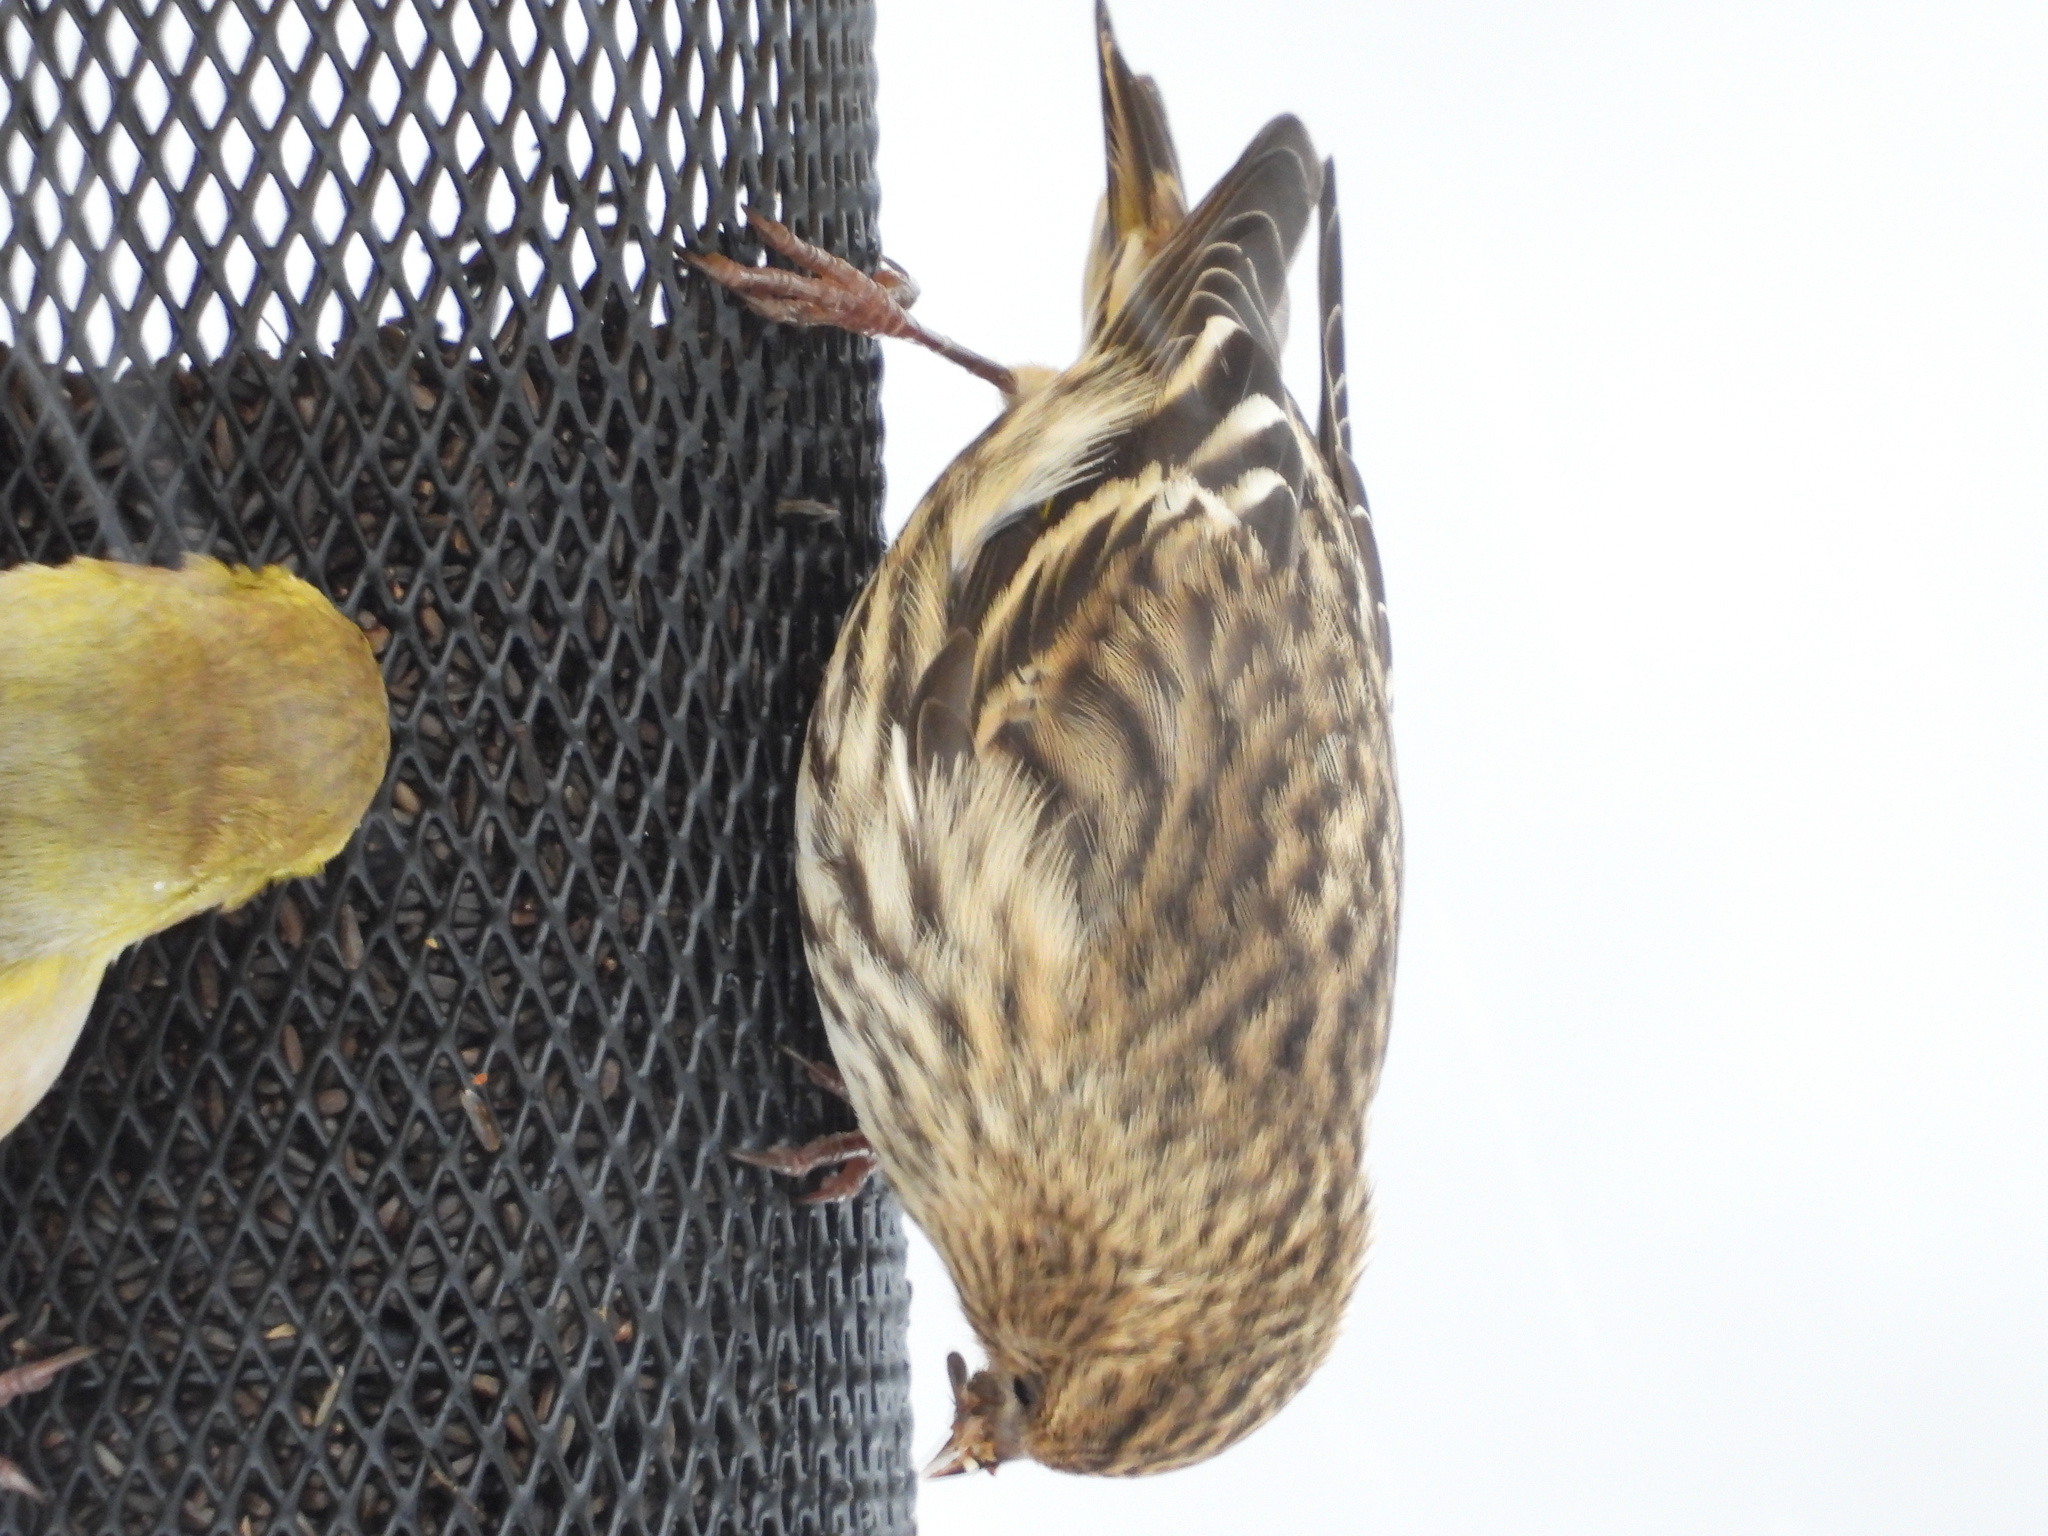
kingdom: Animalia
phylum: Chordata
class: Aves
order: Passeriformes
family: Fringillidae
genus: Spinus
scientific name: Spinus pinus
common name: Pine siskin
